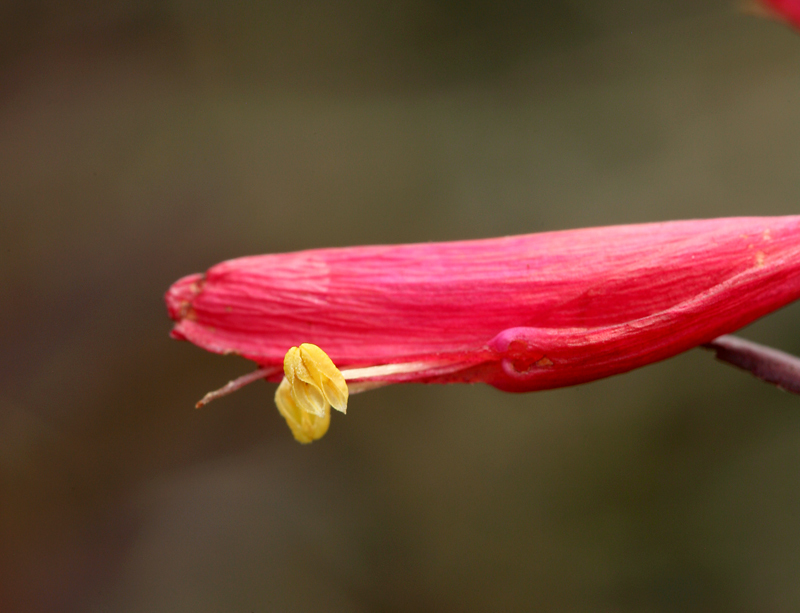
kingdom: Plantae
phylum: Tracheophyta
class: Magnoliopsida
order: Lamiales
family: Orobanchaceae
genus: Pedicularis
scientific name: Pedicularis densiflora
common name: Indian warrior
